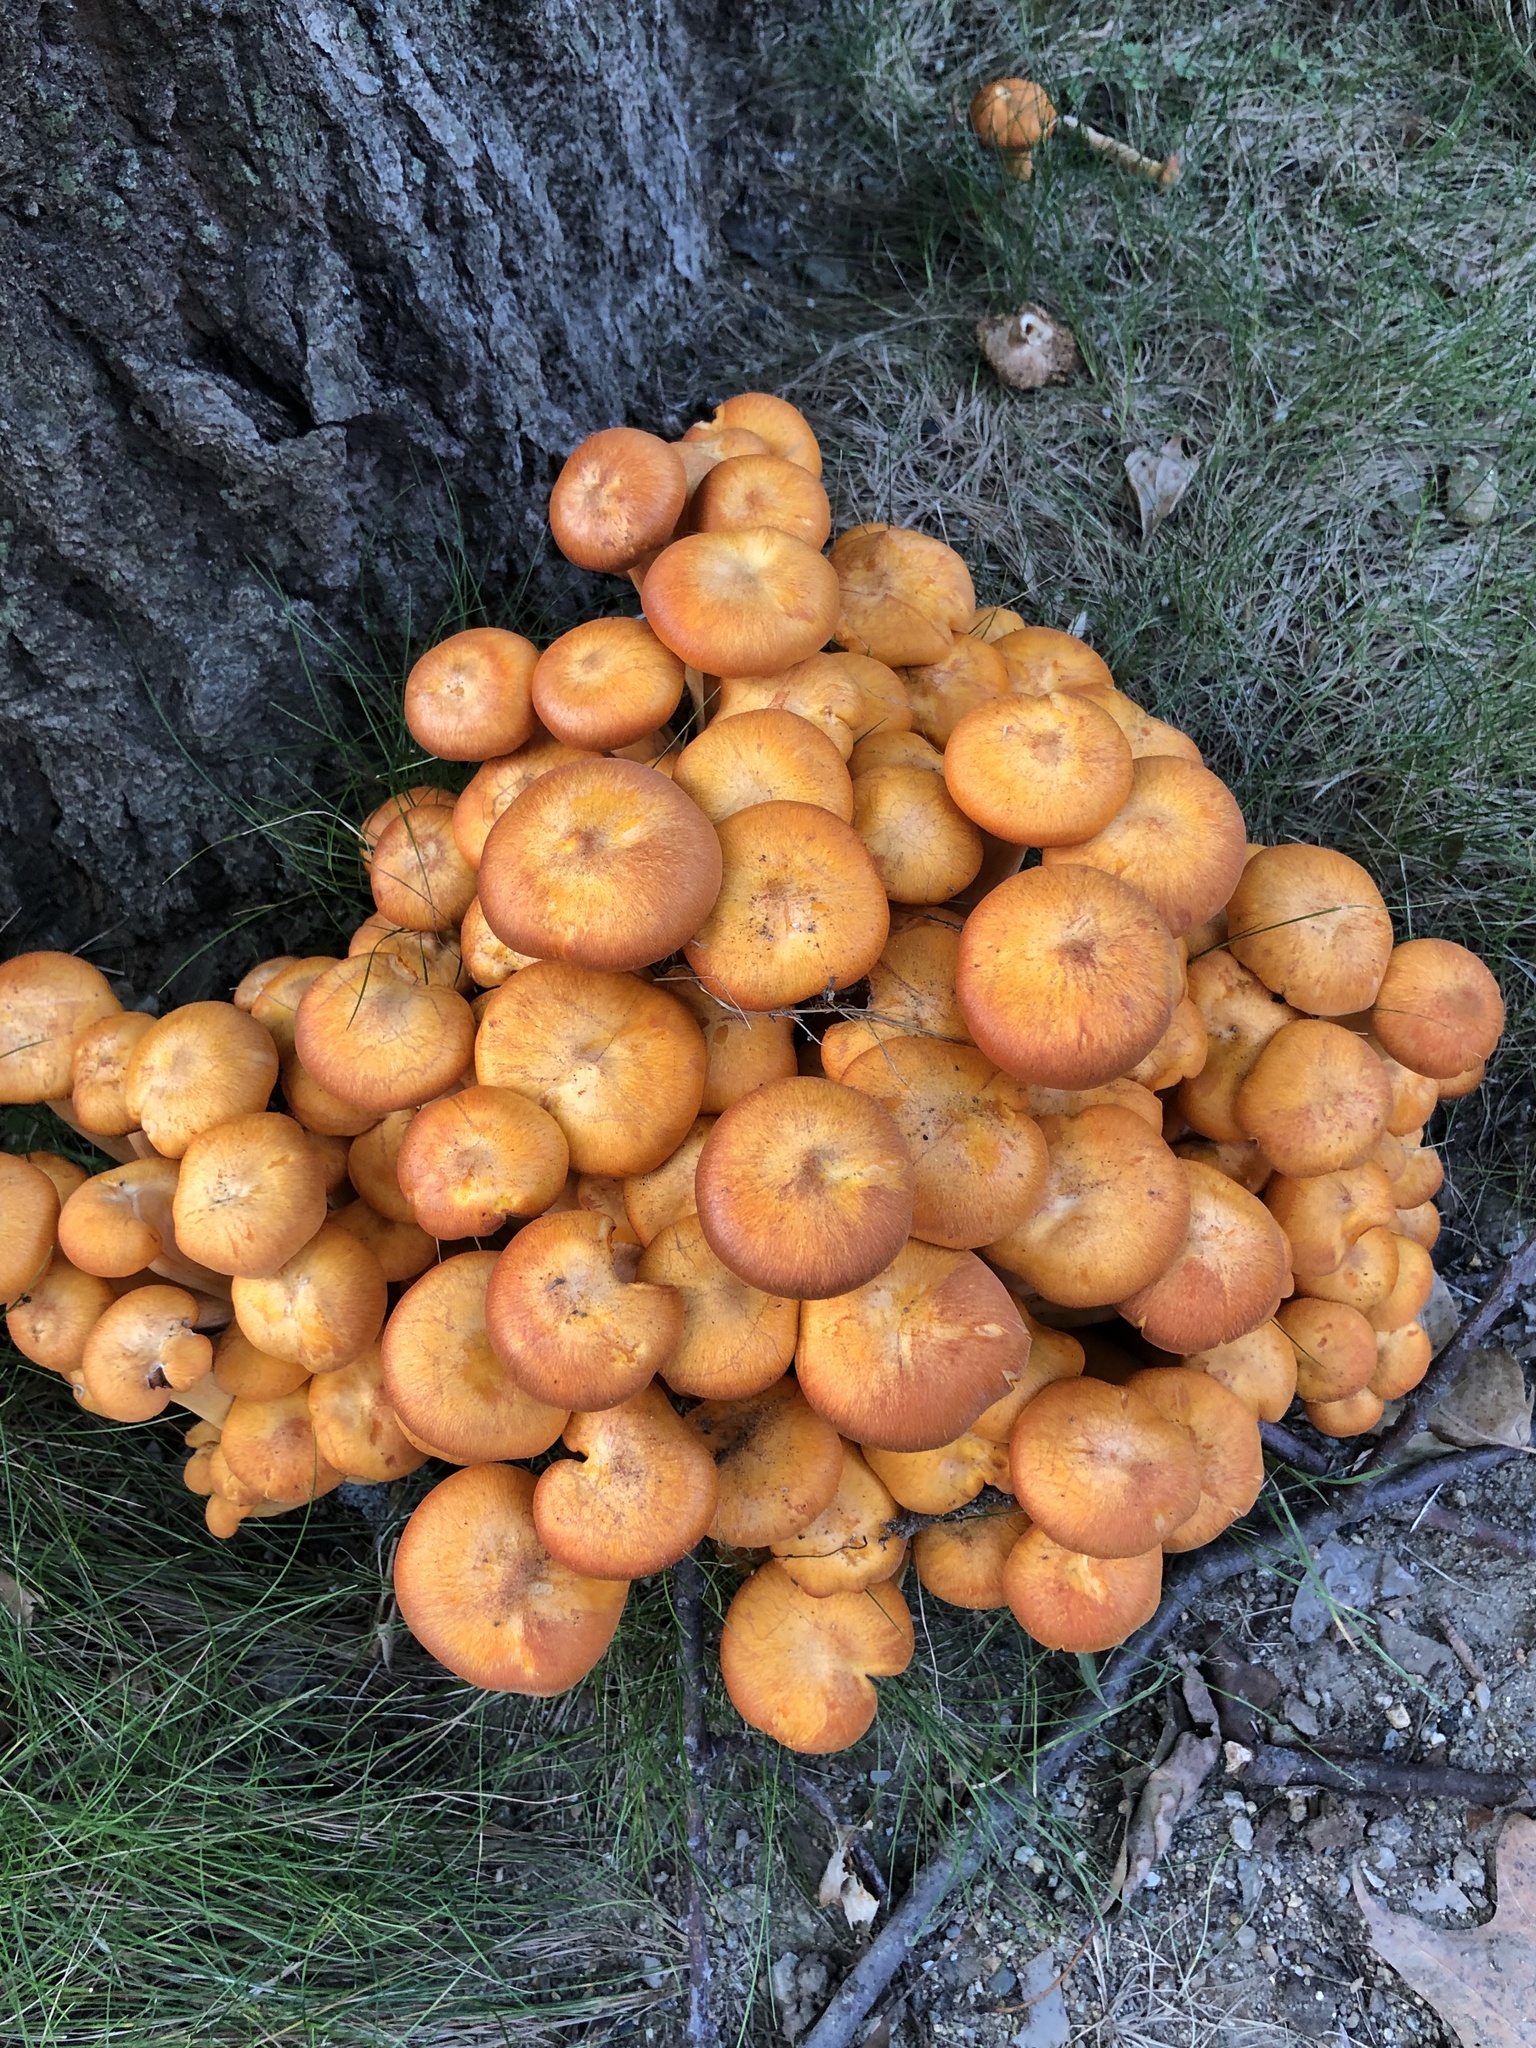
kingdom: Fungi
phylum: Basidiomycota
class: Agaricomycetes
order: Agaricales
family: Omphalotaceae
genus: Omphalotus
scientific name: Omphalotus illudens
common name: Jack o lantern
